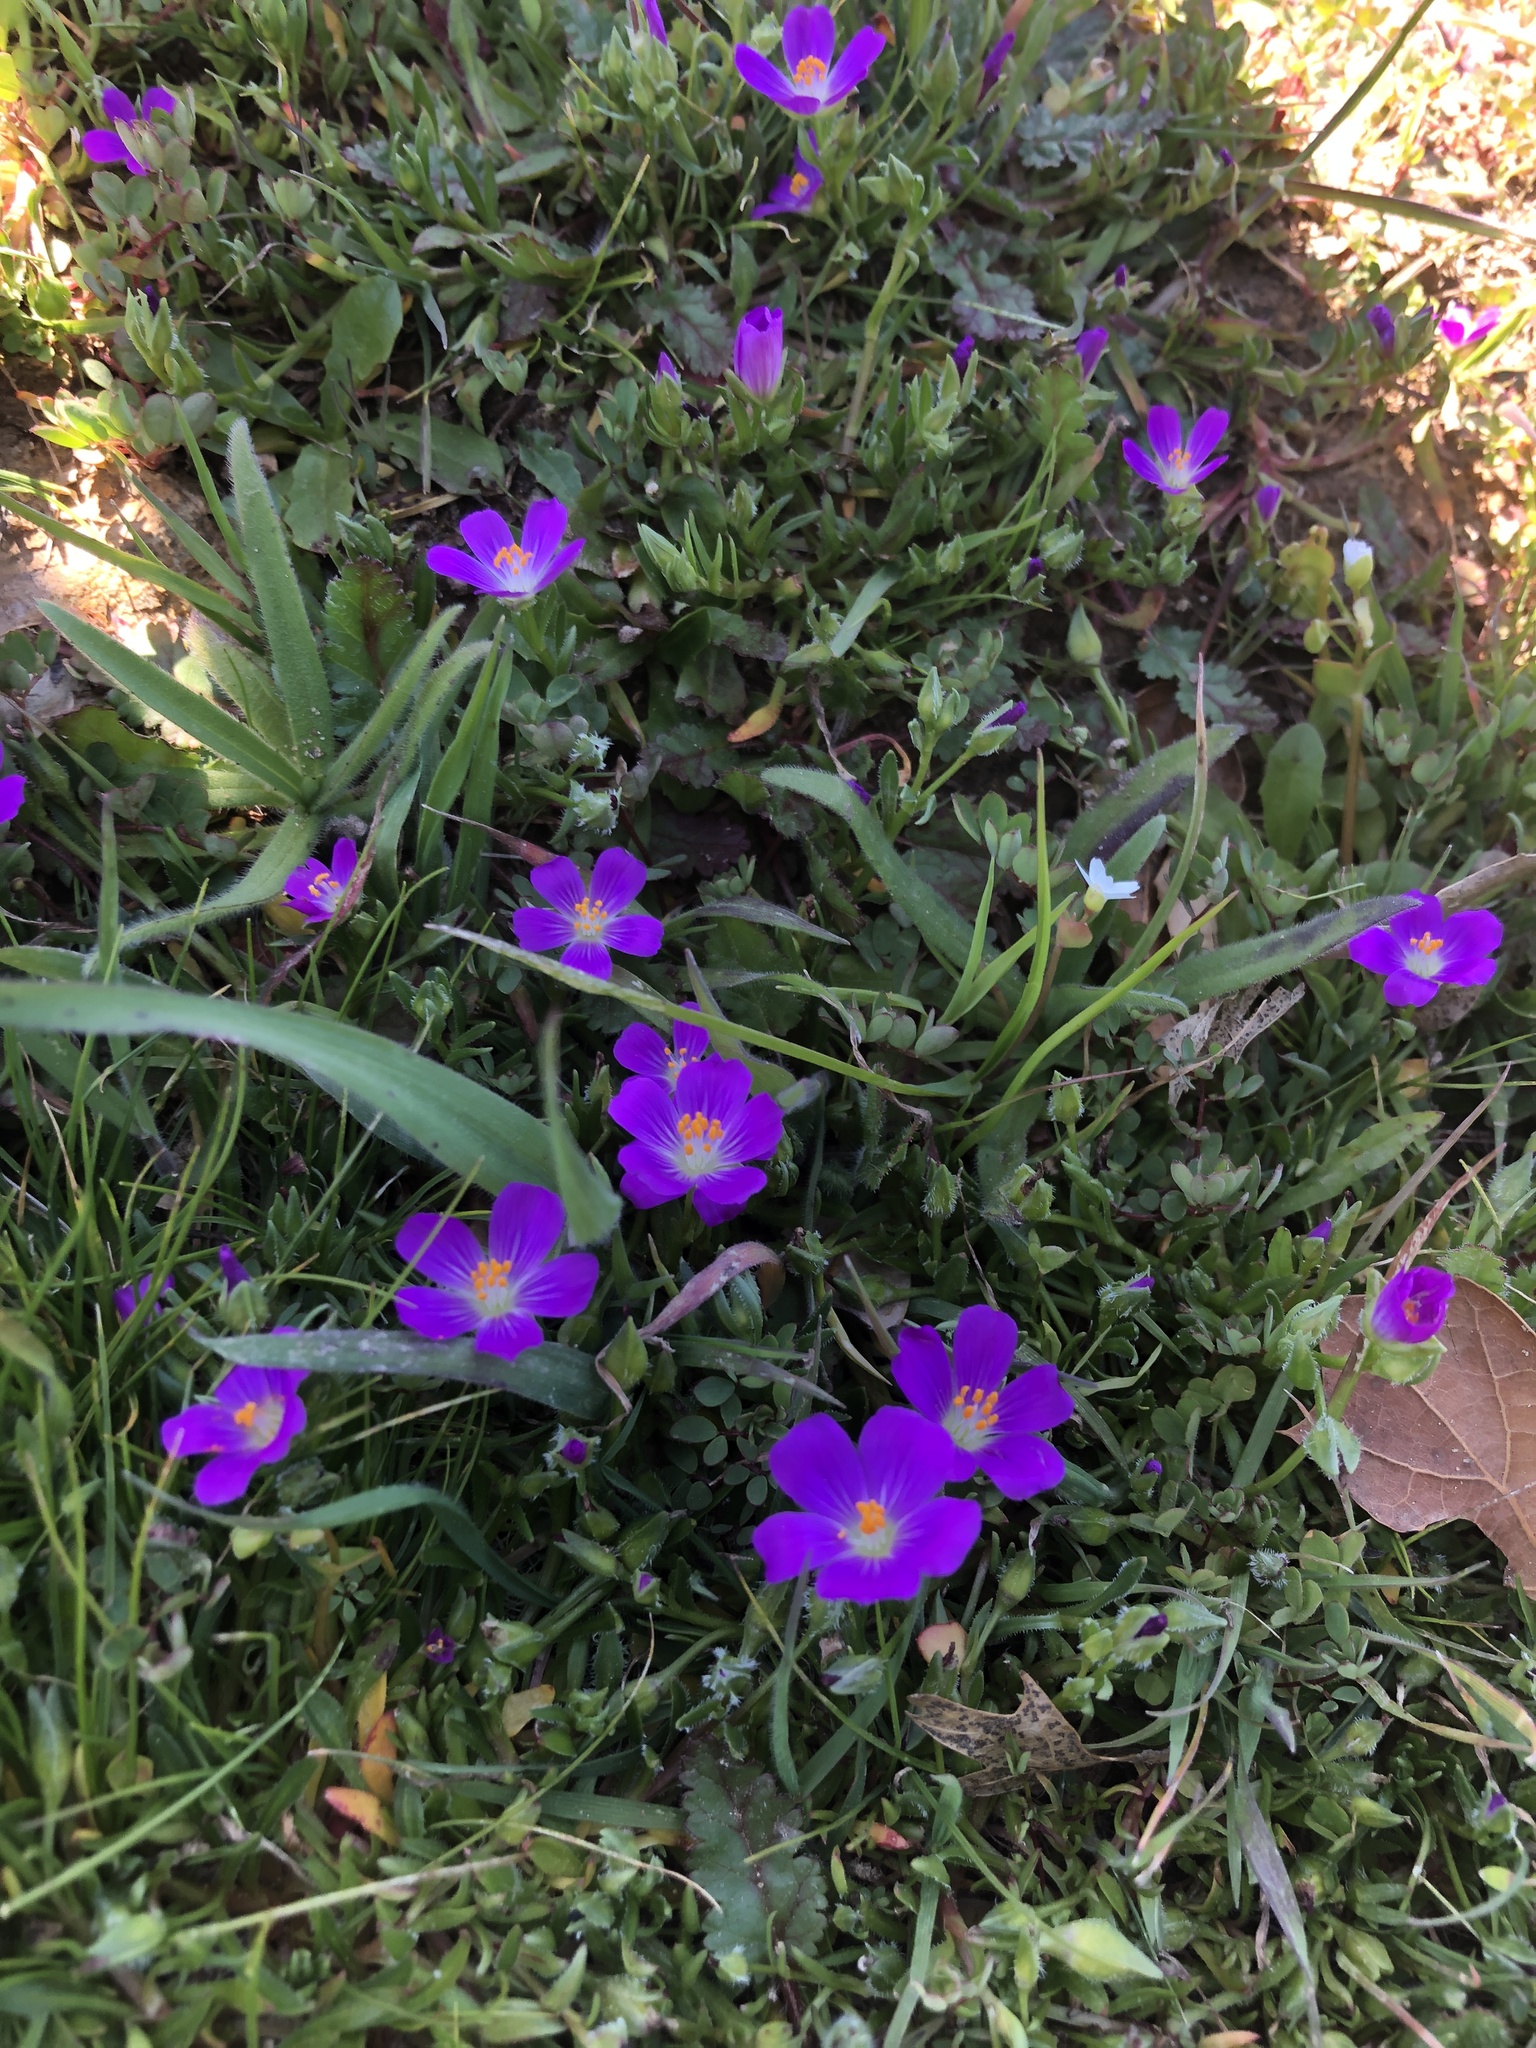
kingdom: Plantae
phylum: Tracheophyta
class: Magnoliopsida
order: Caryophyllales
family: Montiaceae
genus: Calandrinia
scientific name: Calandrinia menziesii
